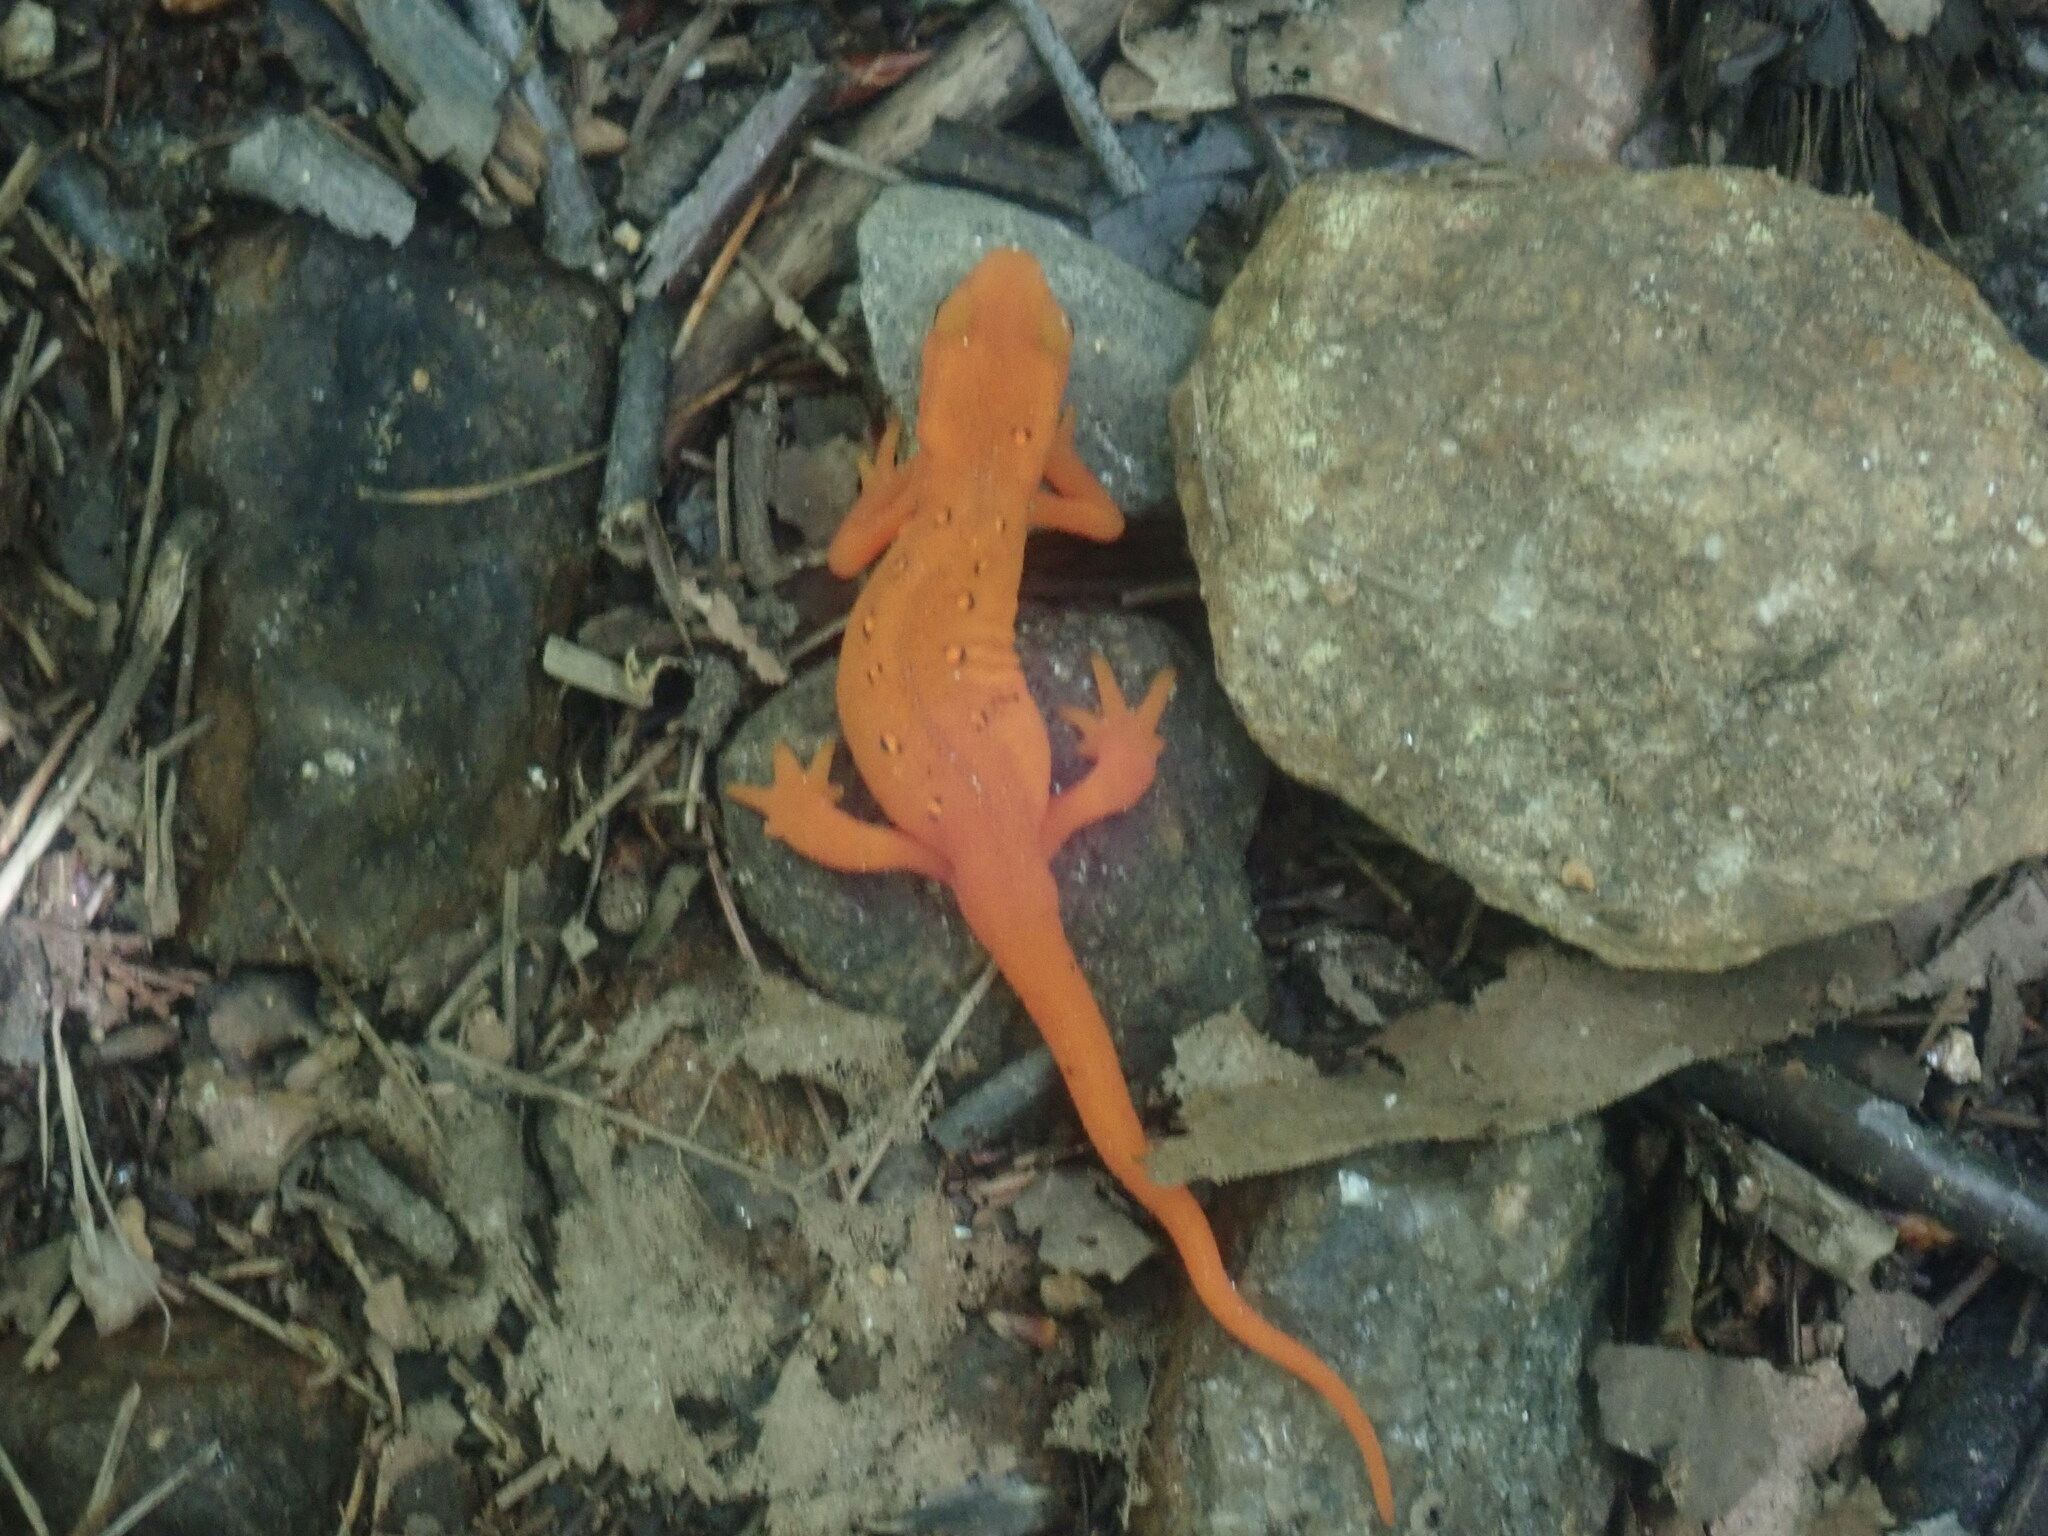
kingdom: Animalia
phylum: Chordata
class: Amphibia
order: Caudata
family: Salamandridae
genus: Notophthalmus
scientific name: Notophthalmus viridescens
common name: Eastern newt
